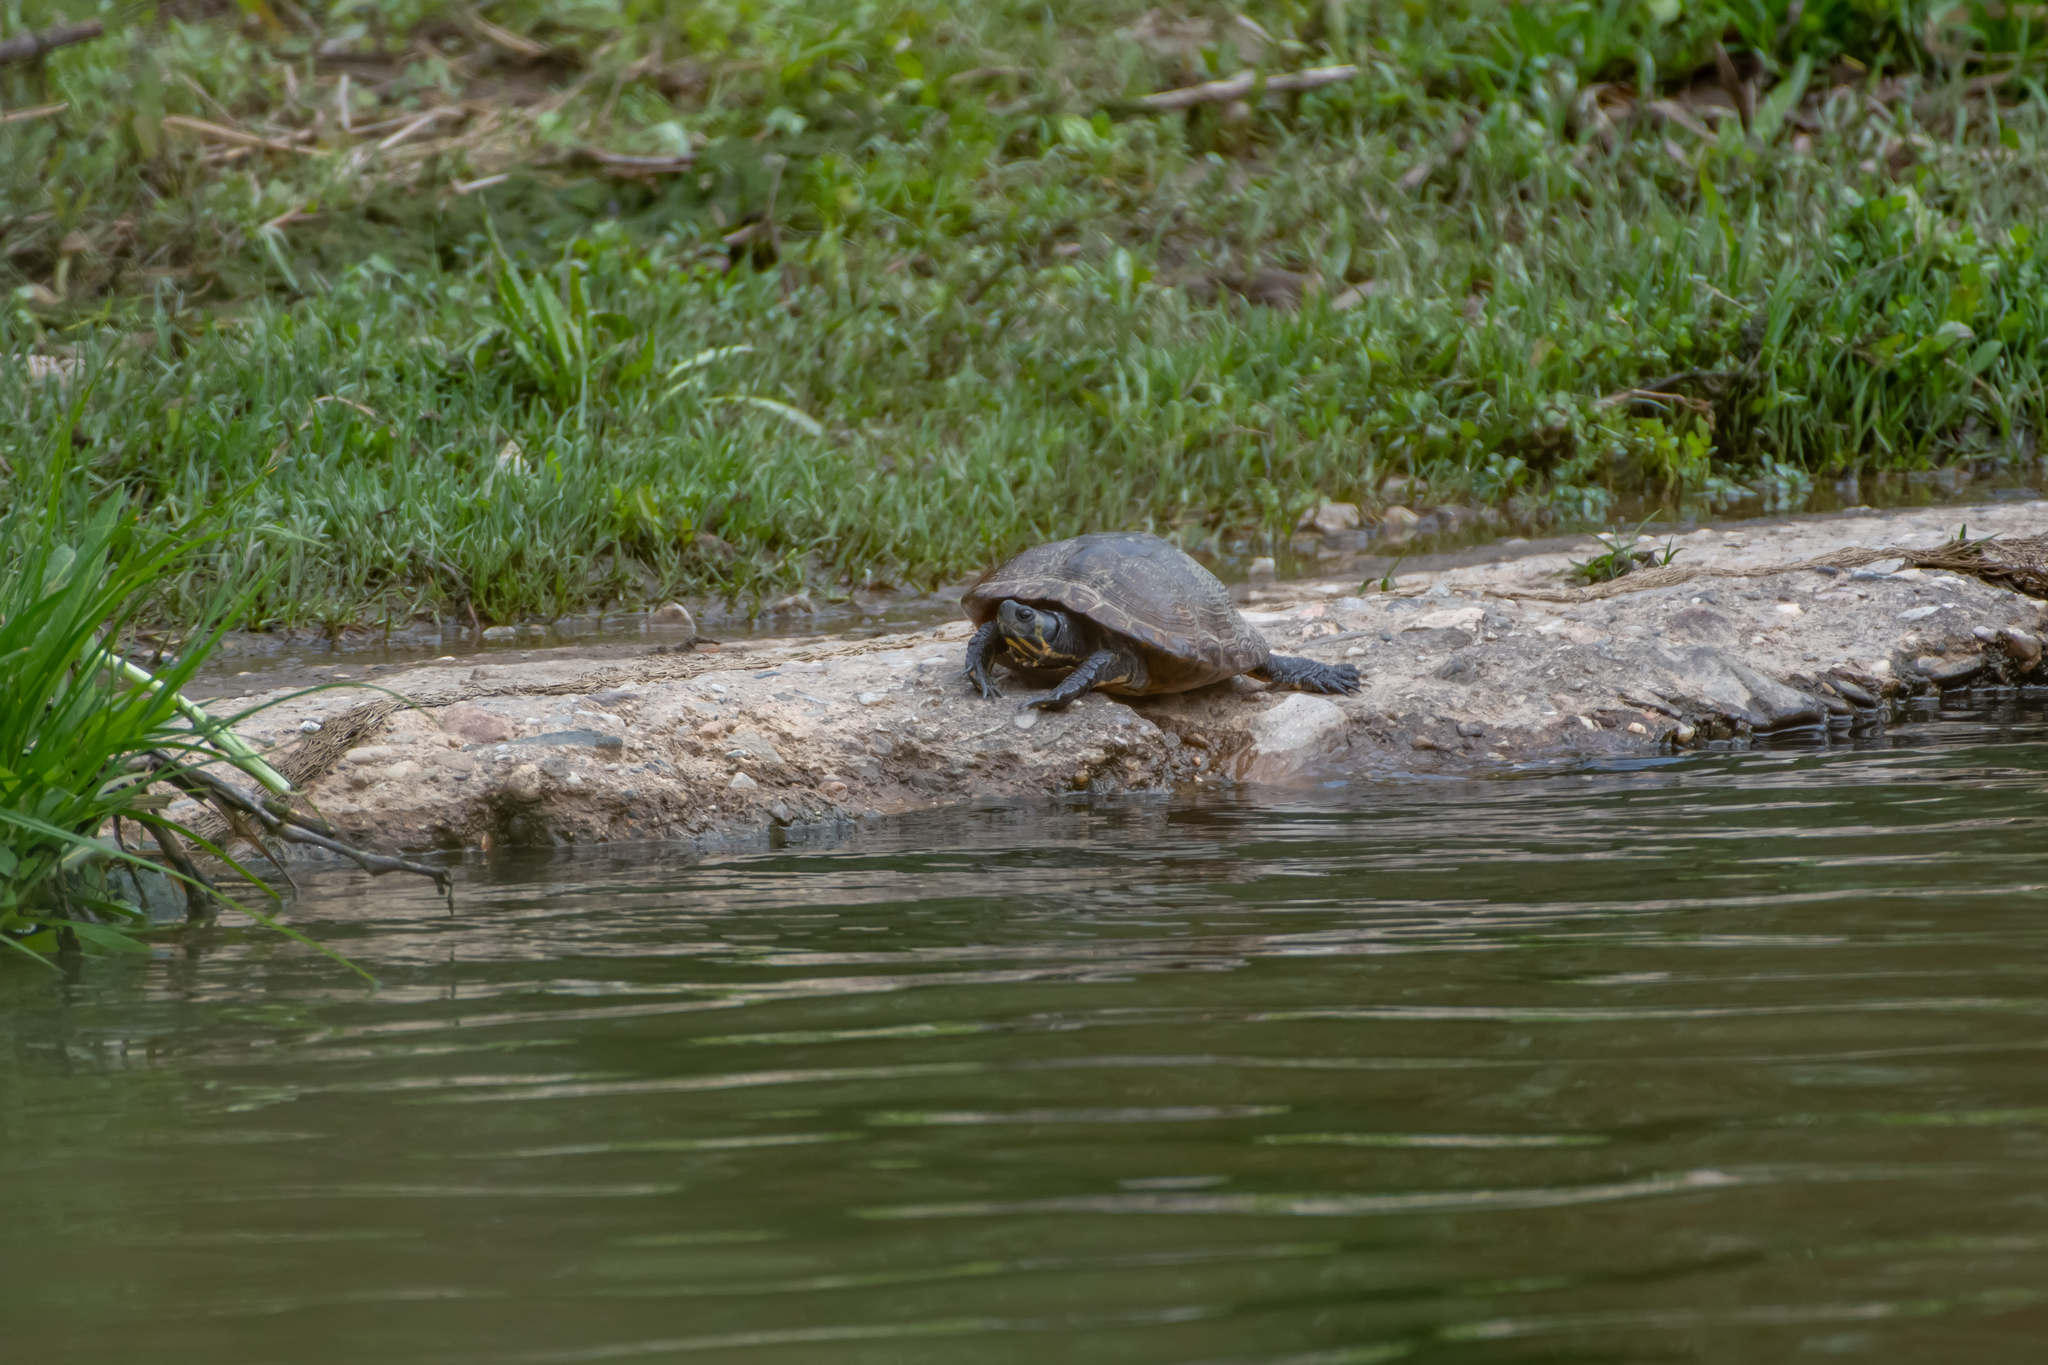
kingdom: Animalia
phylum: Chordata
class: Testudines
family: Emydidae
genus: Trachemys
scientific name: Trachemys scripta
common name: Slider
